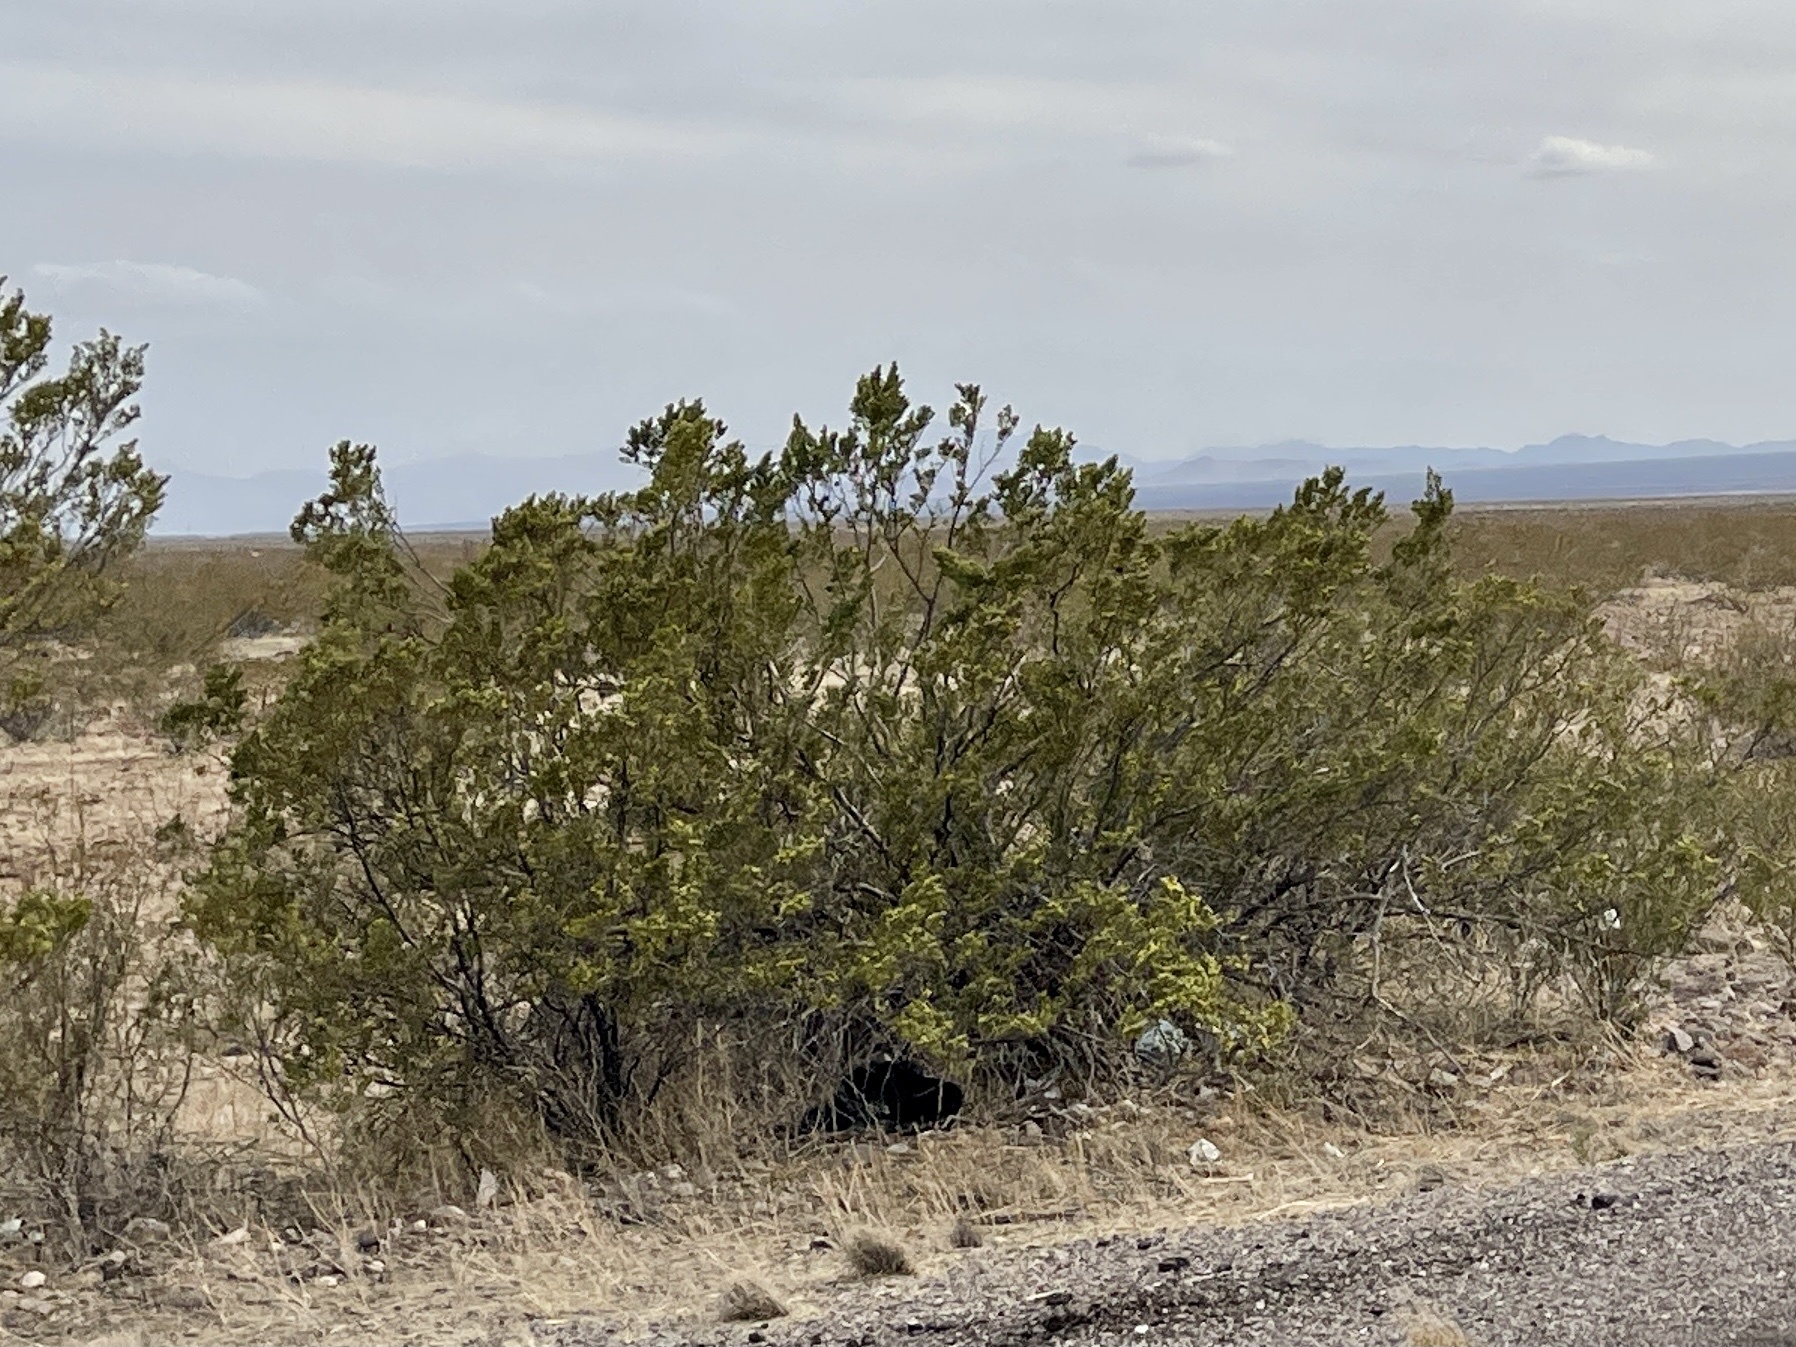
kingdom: Plantae
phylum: Tracheophyta
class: Magnoliopsida
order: Zygophyllales
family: Zygophyllaceae
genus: Larrea
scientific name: Larrea tridentata
